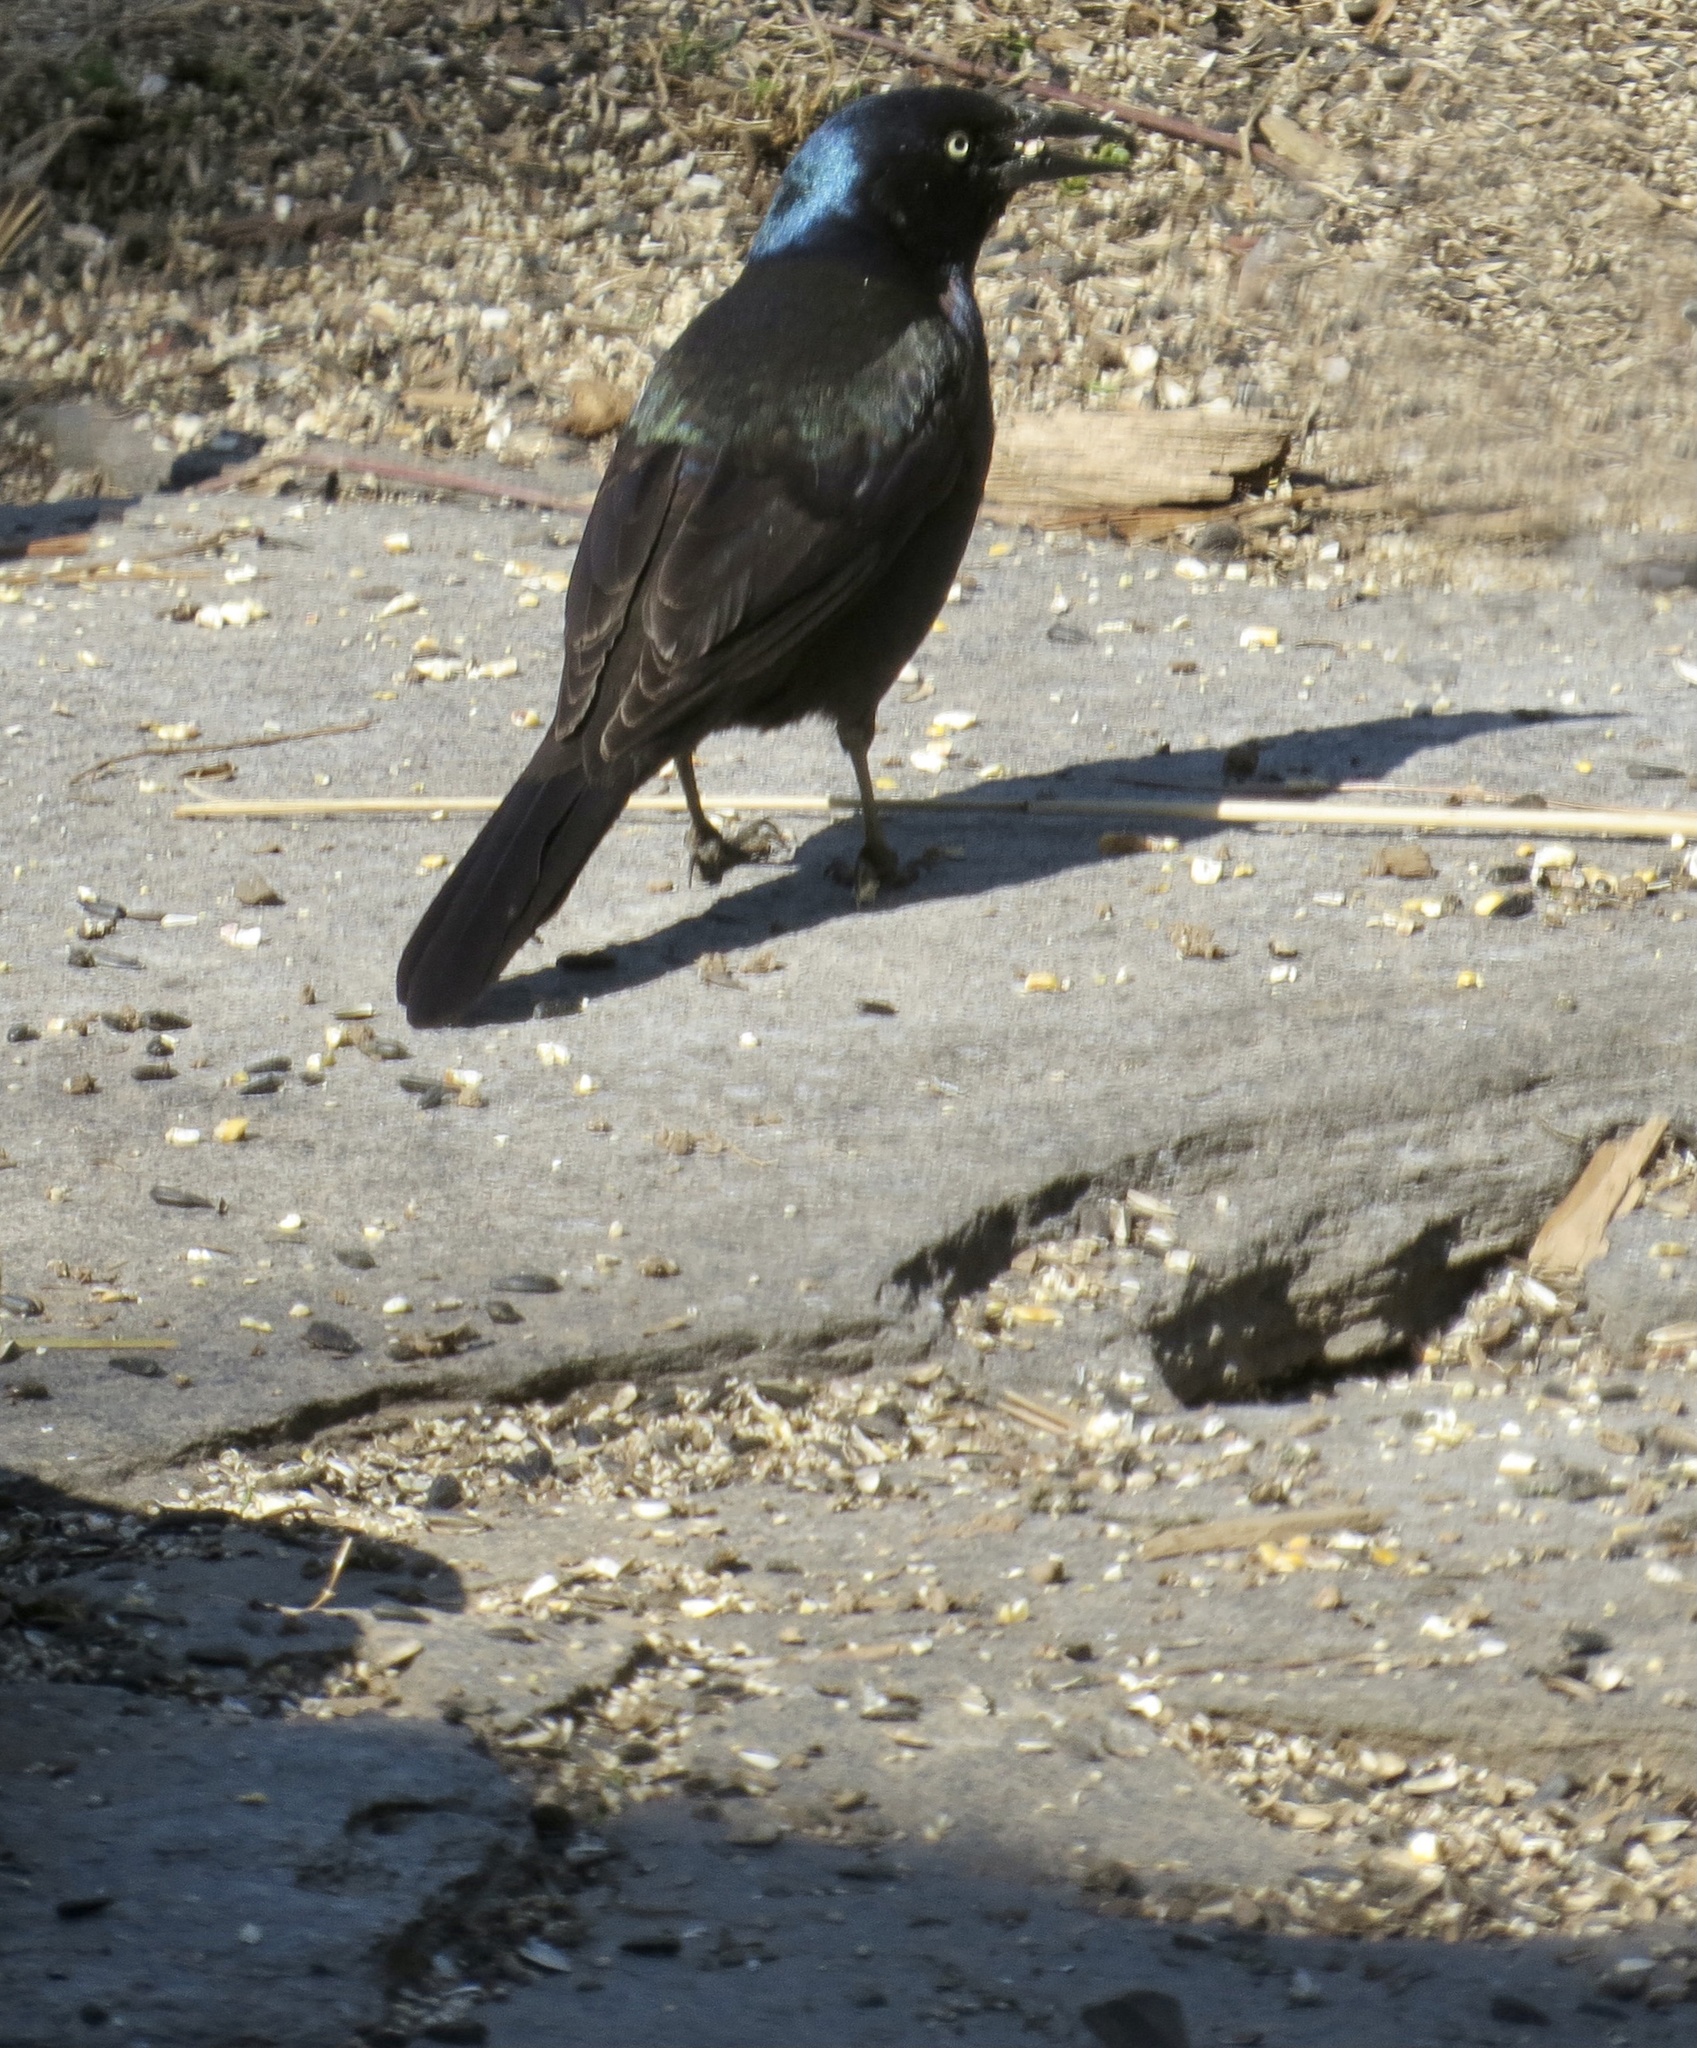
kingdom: Animalia
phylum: Chordata
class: Aves
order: Passeriformes
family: Icteridae
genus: Quiscalus
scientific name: Quiscalus quiscula
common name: Common grackle
